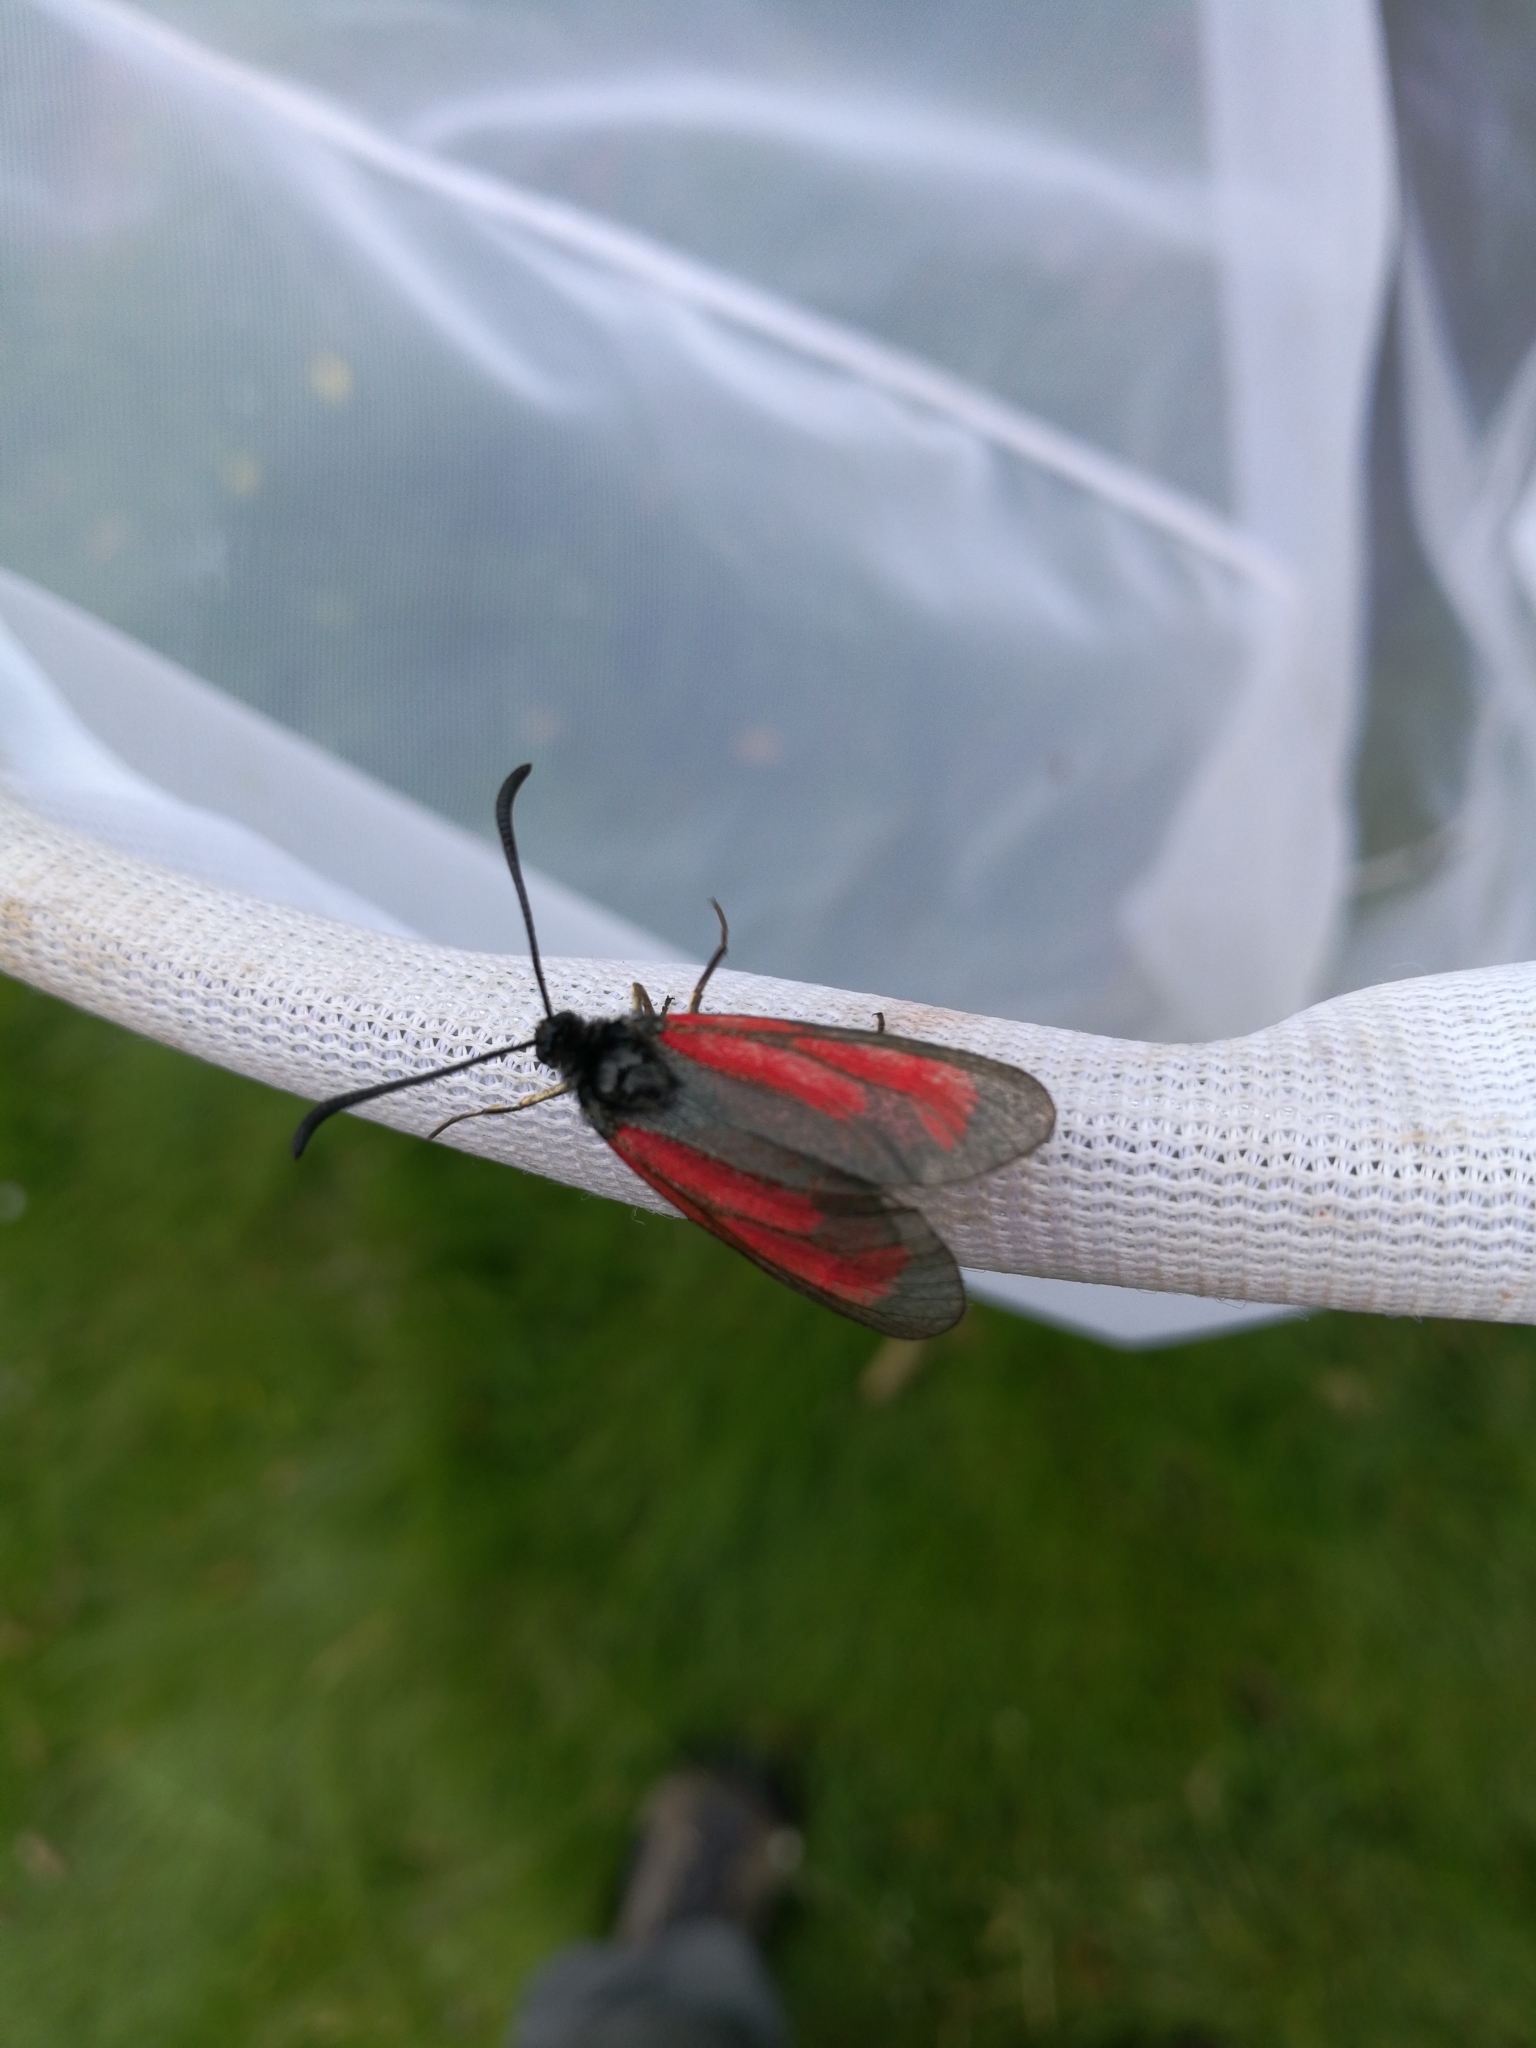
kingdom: Animalia
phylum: Arthropoda
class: Insecta
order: Lepidoptera
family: Zygaenidae
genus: Zygaena
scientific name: Zygaena purpuralis
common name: Transparent burnet
